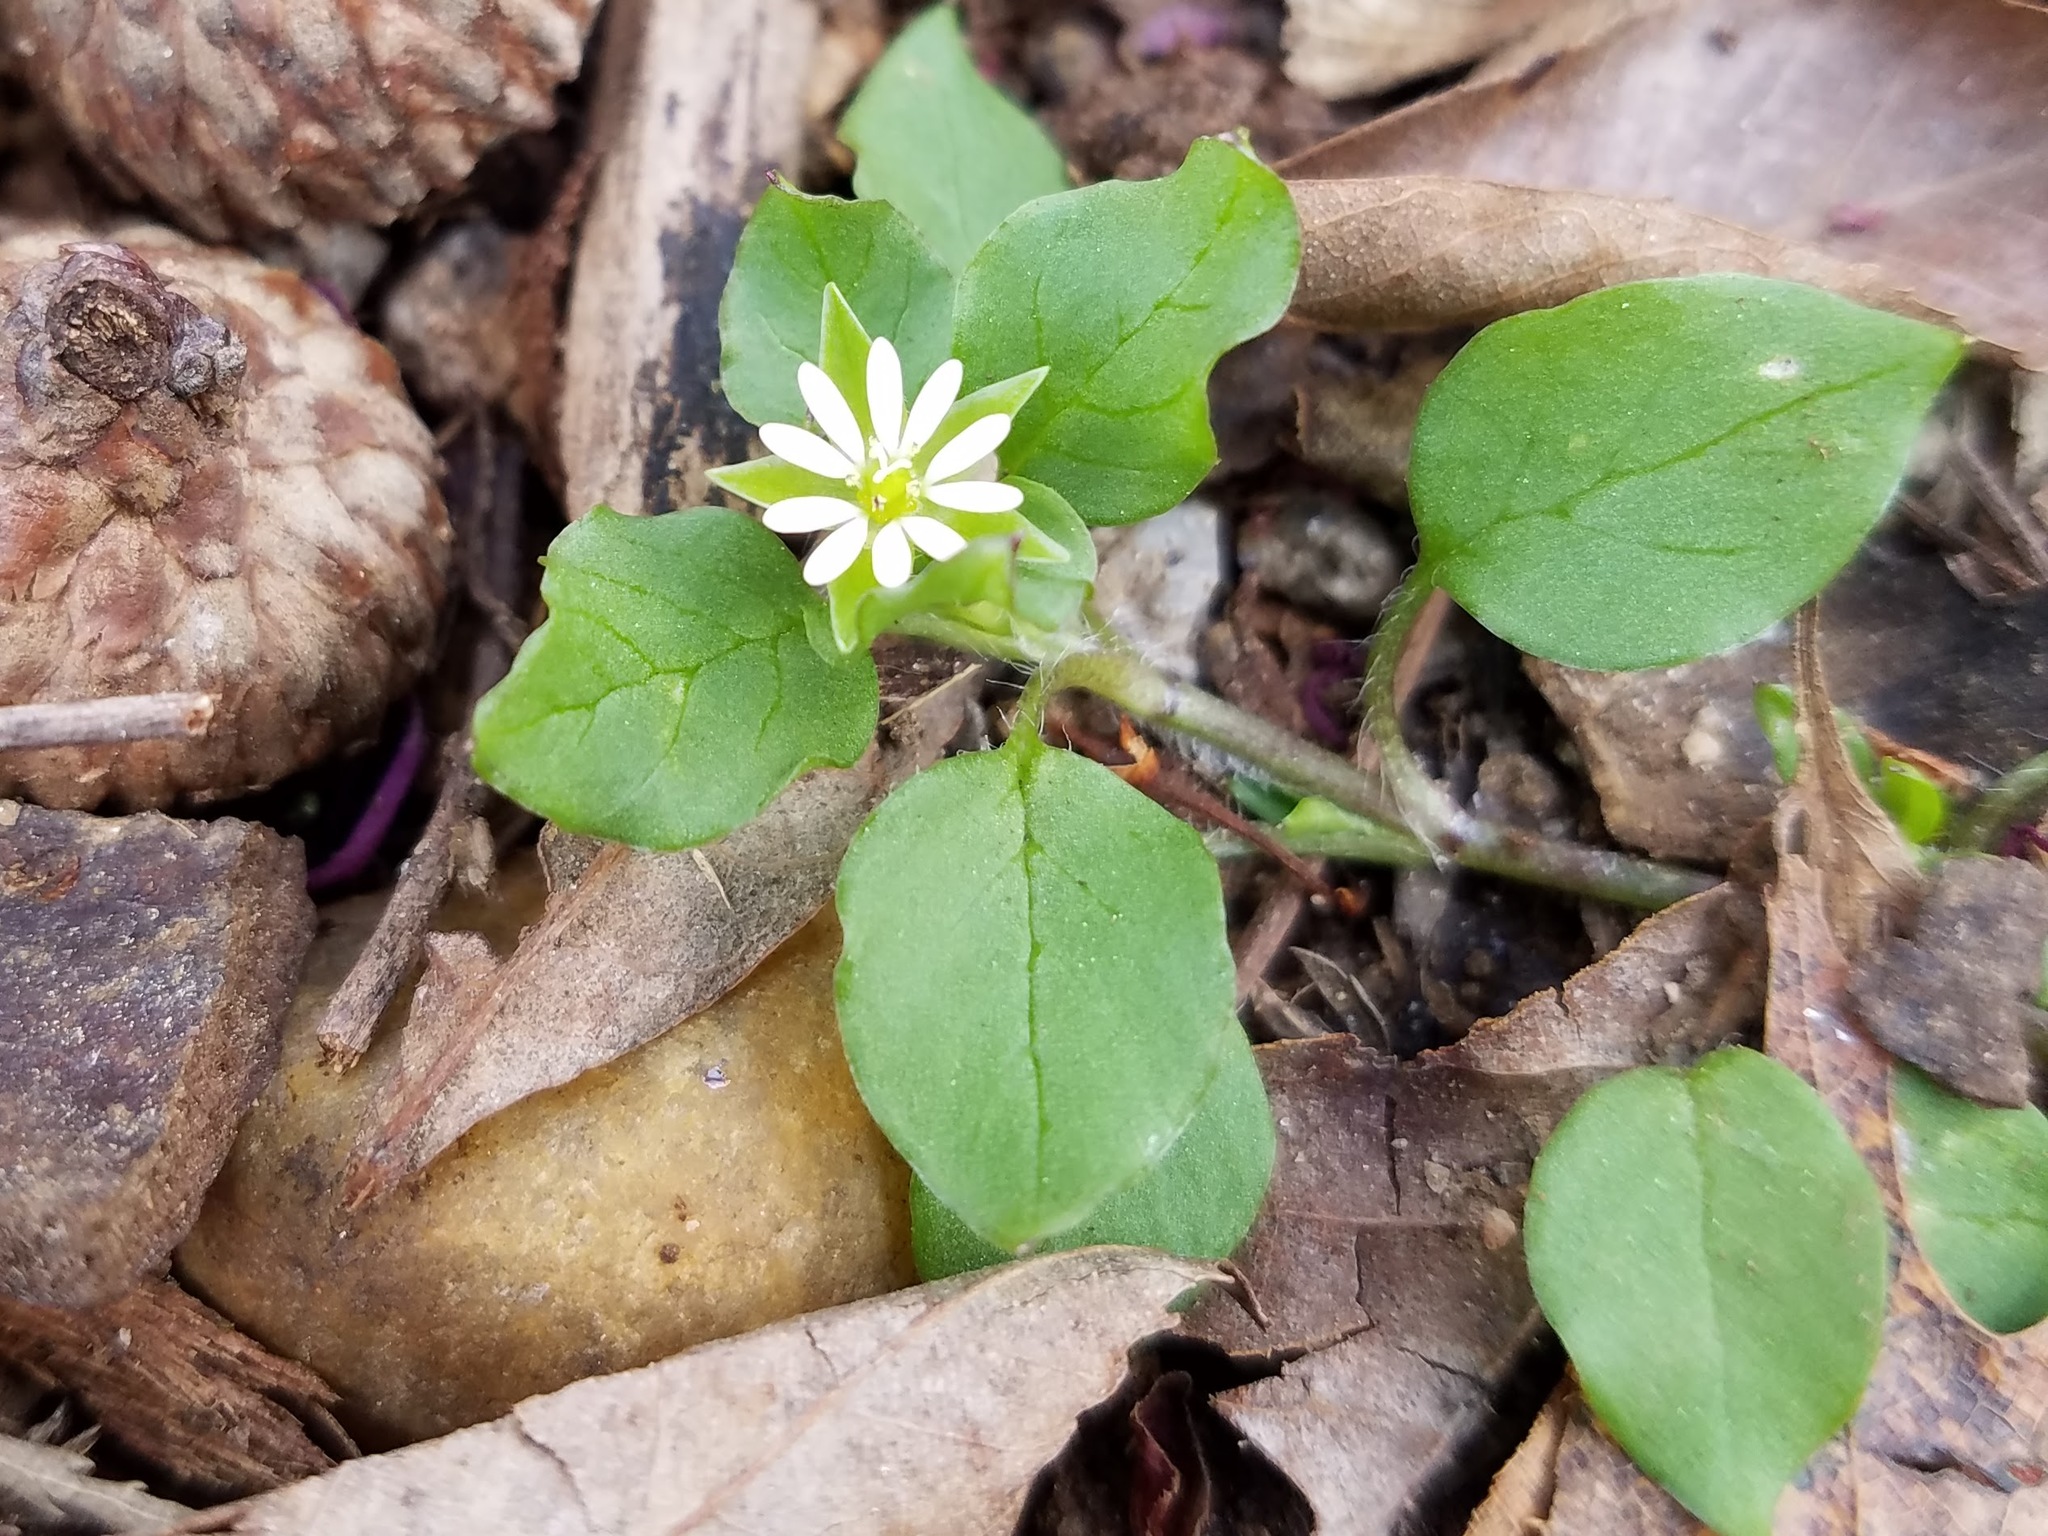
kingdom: Plantae
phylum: Tracheophyta
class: Magnoliopsida
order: Caryophyllales
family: Caryophyllaceae
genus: Stellaria
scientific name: Stellaria media
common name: Common chickweed
